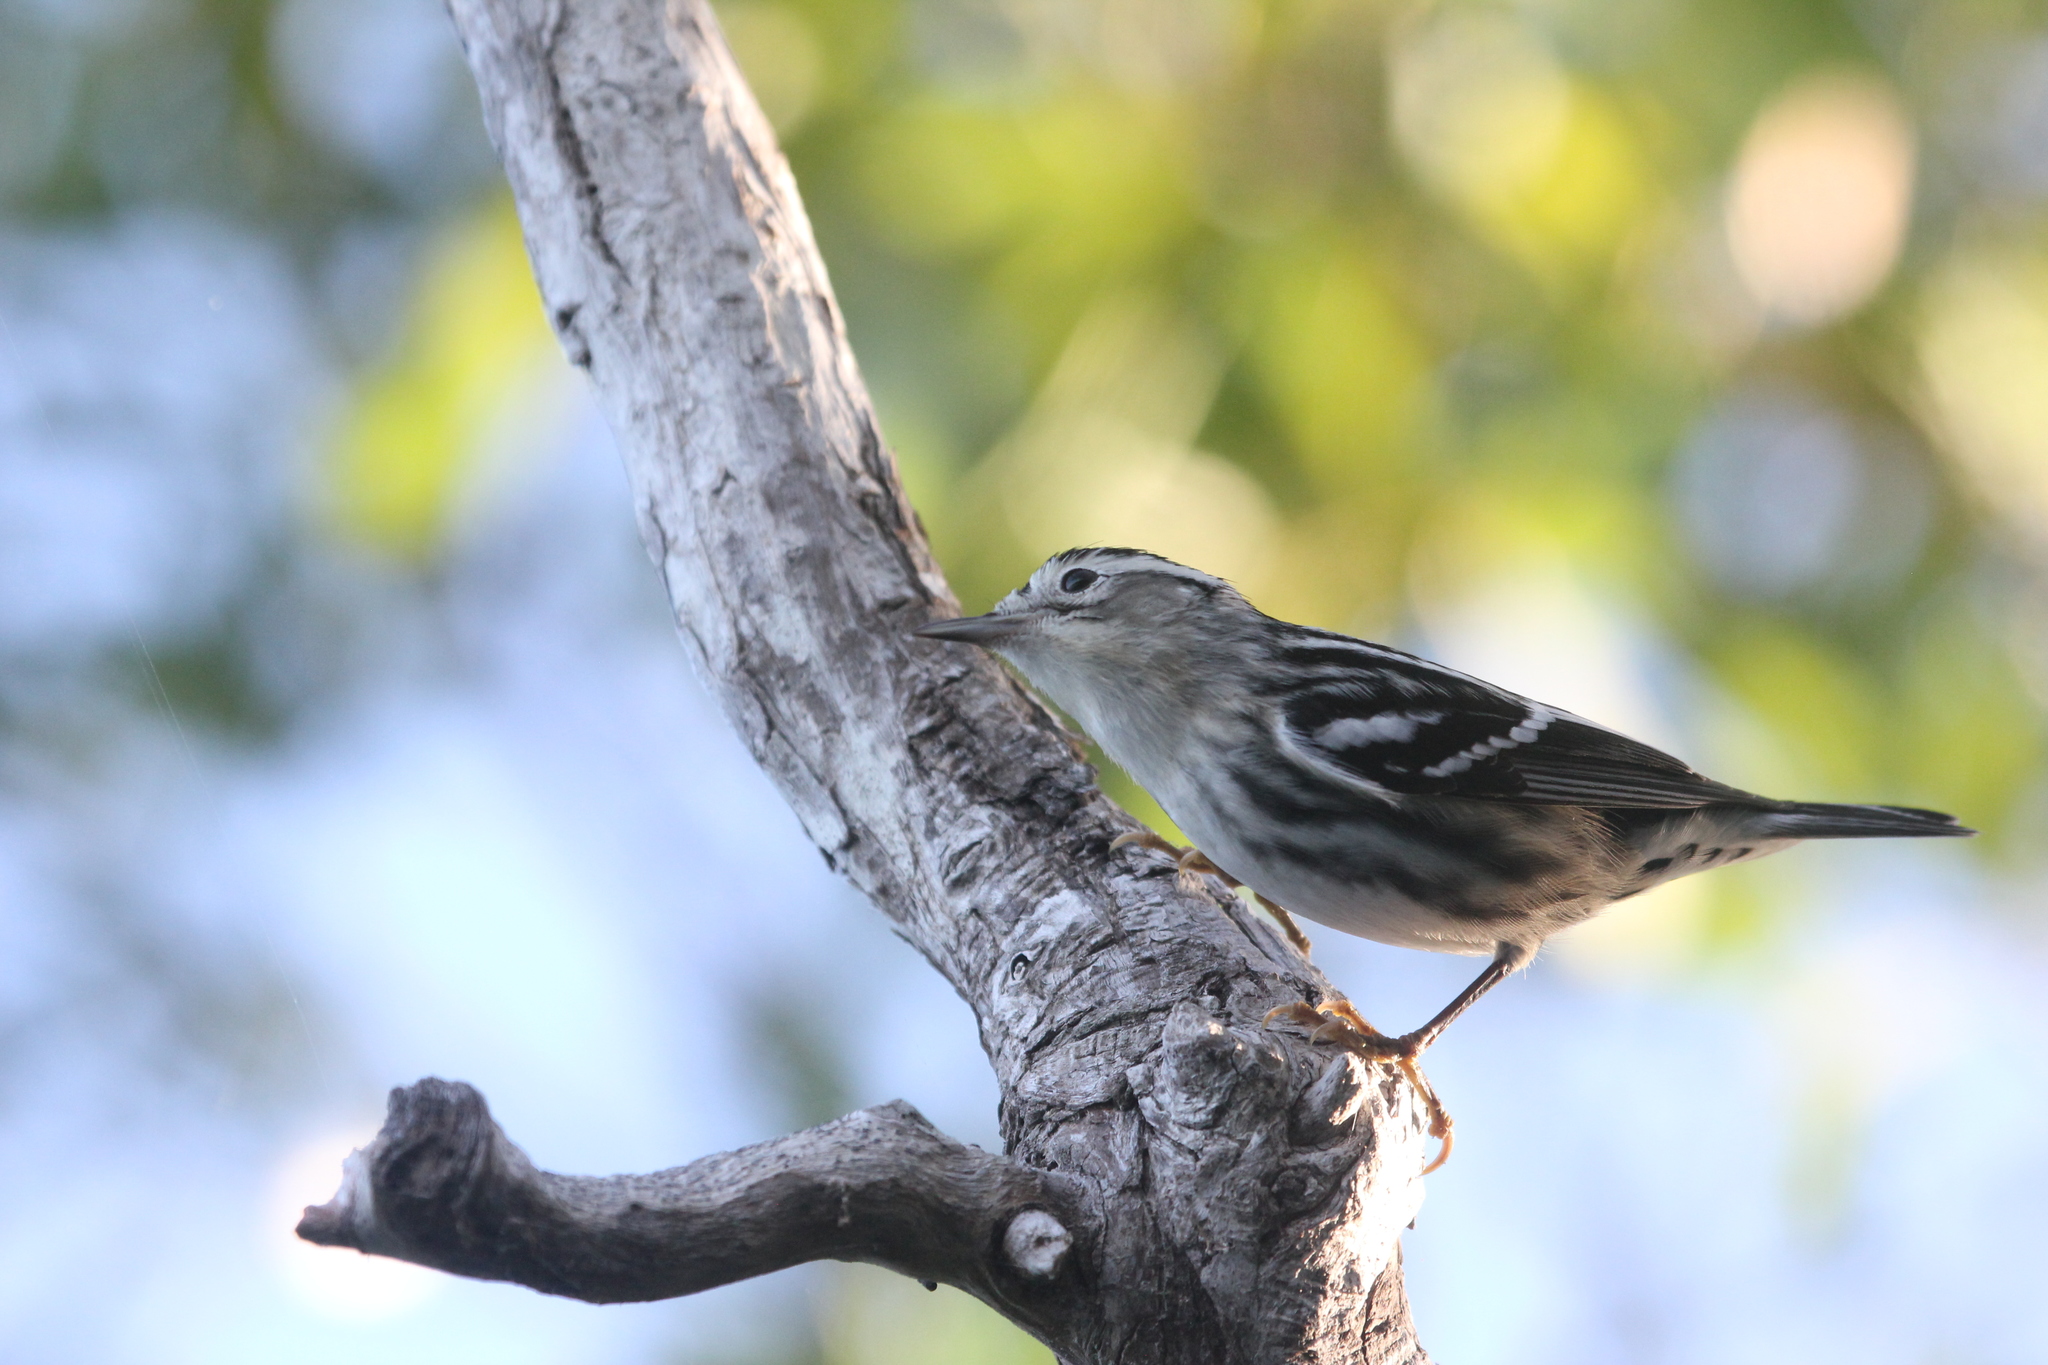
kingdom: Animalia
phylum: Chordata
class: Aves
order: Passeriformes
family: Parulidae
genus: Mniotilta
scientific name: Mniotilta varia
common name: Black-and-white warbler
